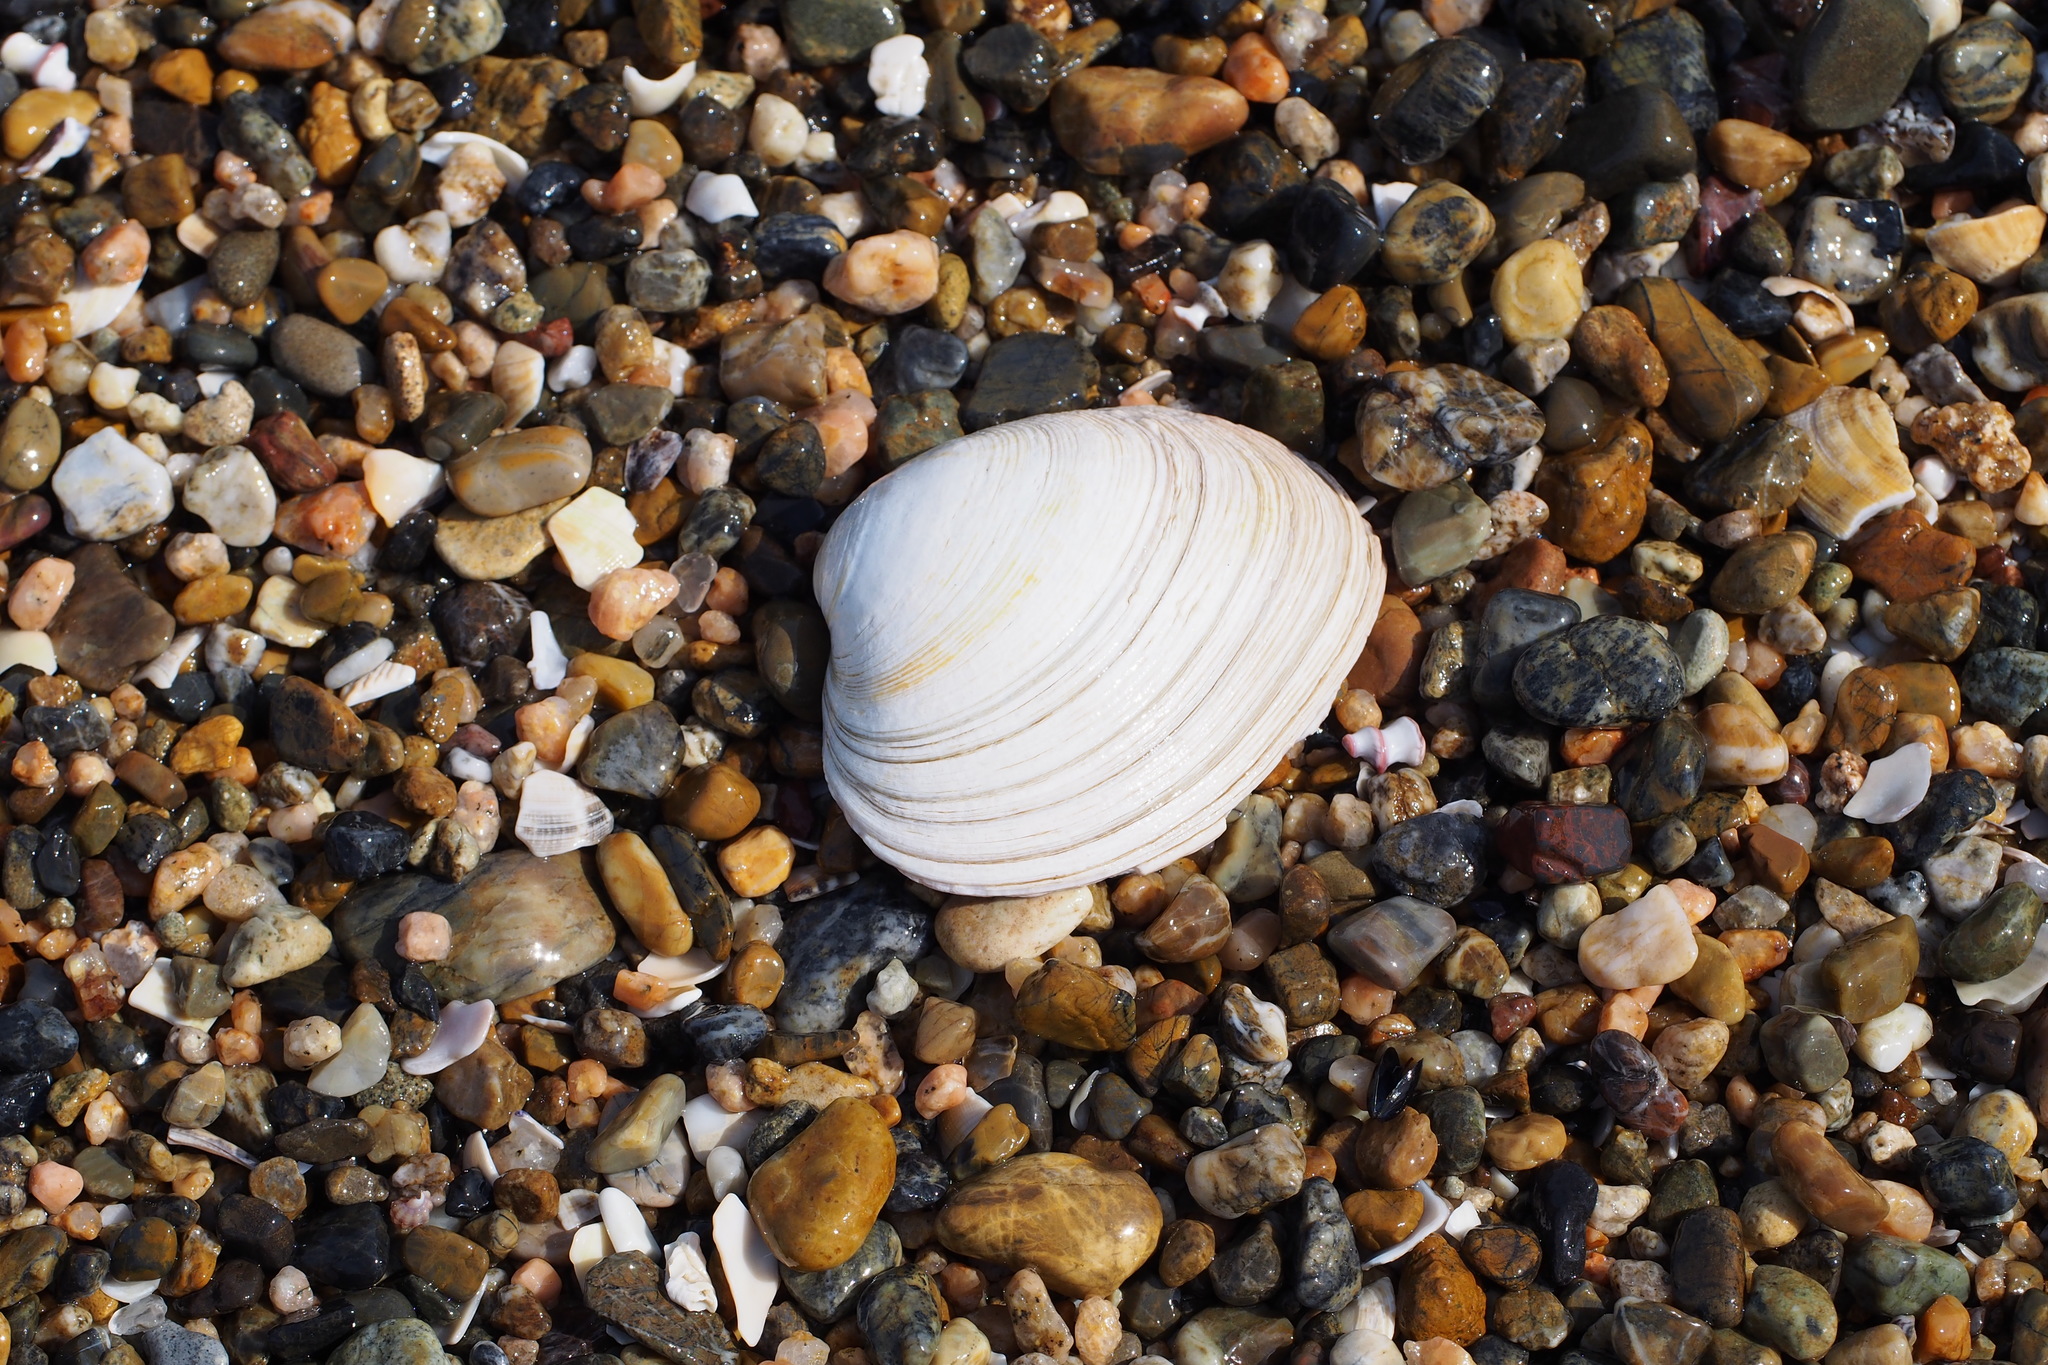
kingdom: Animalia
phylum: Mollusca
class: Bivalvia
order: Venerida
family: Veneridae
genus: Saxidomus
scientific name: Saxidomus purpurata
